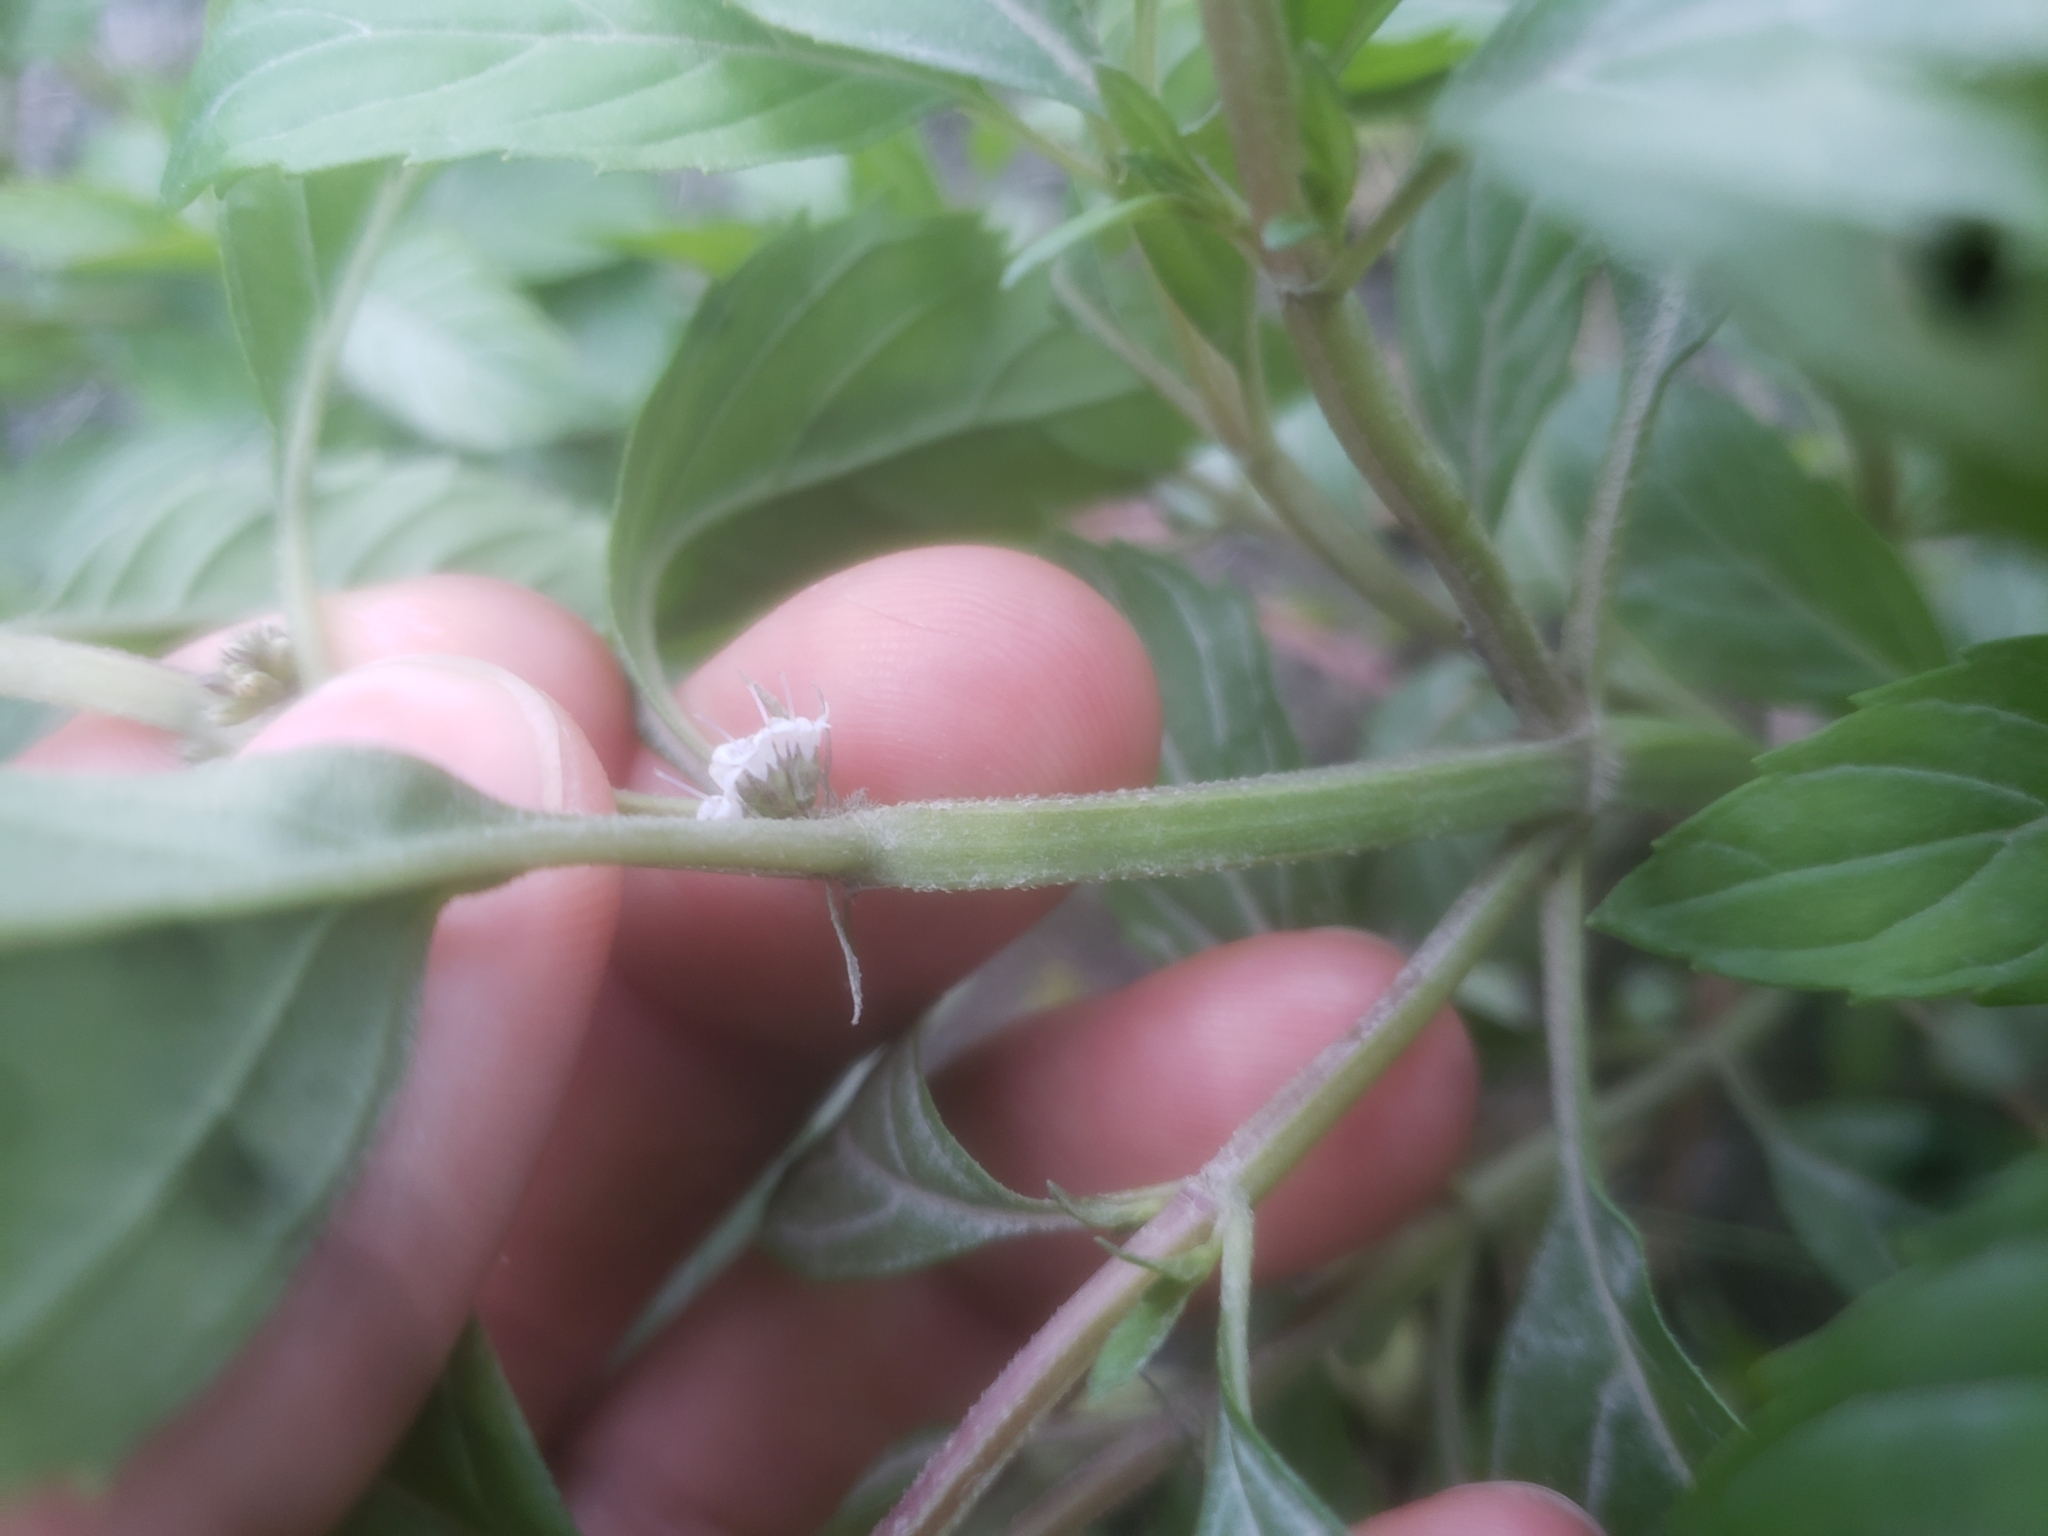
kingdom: Plantae
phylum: Tracheophyta
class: Magnoliopsida
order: Lamiales
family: Lamiaceae
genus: Mentha
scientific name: Mentha canadensis
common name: American corn mint
